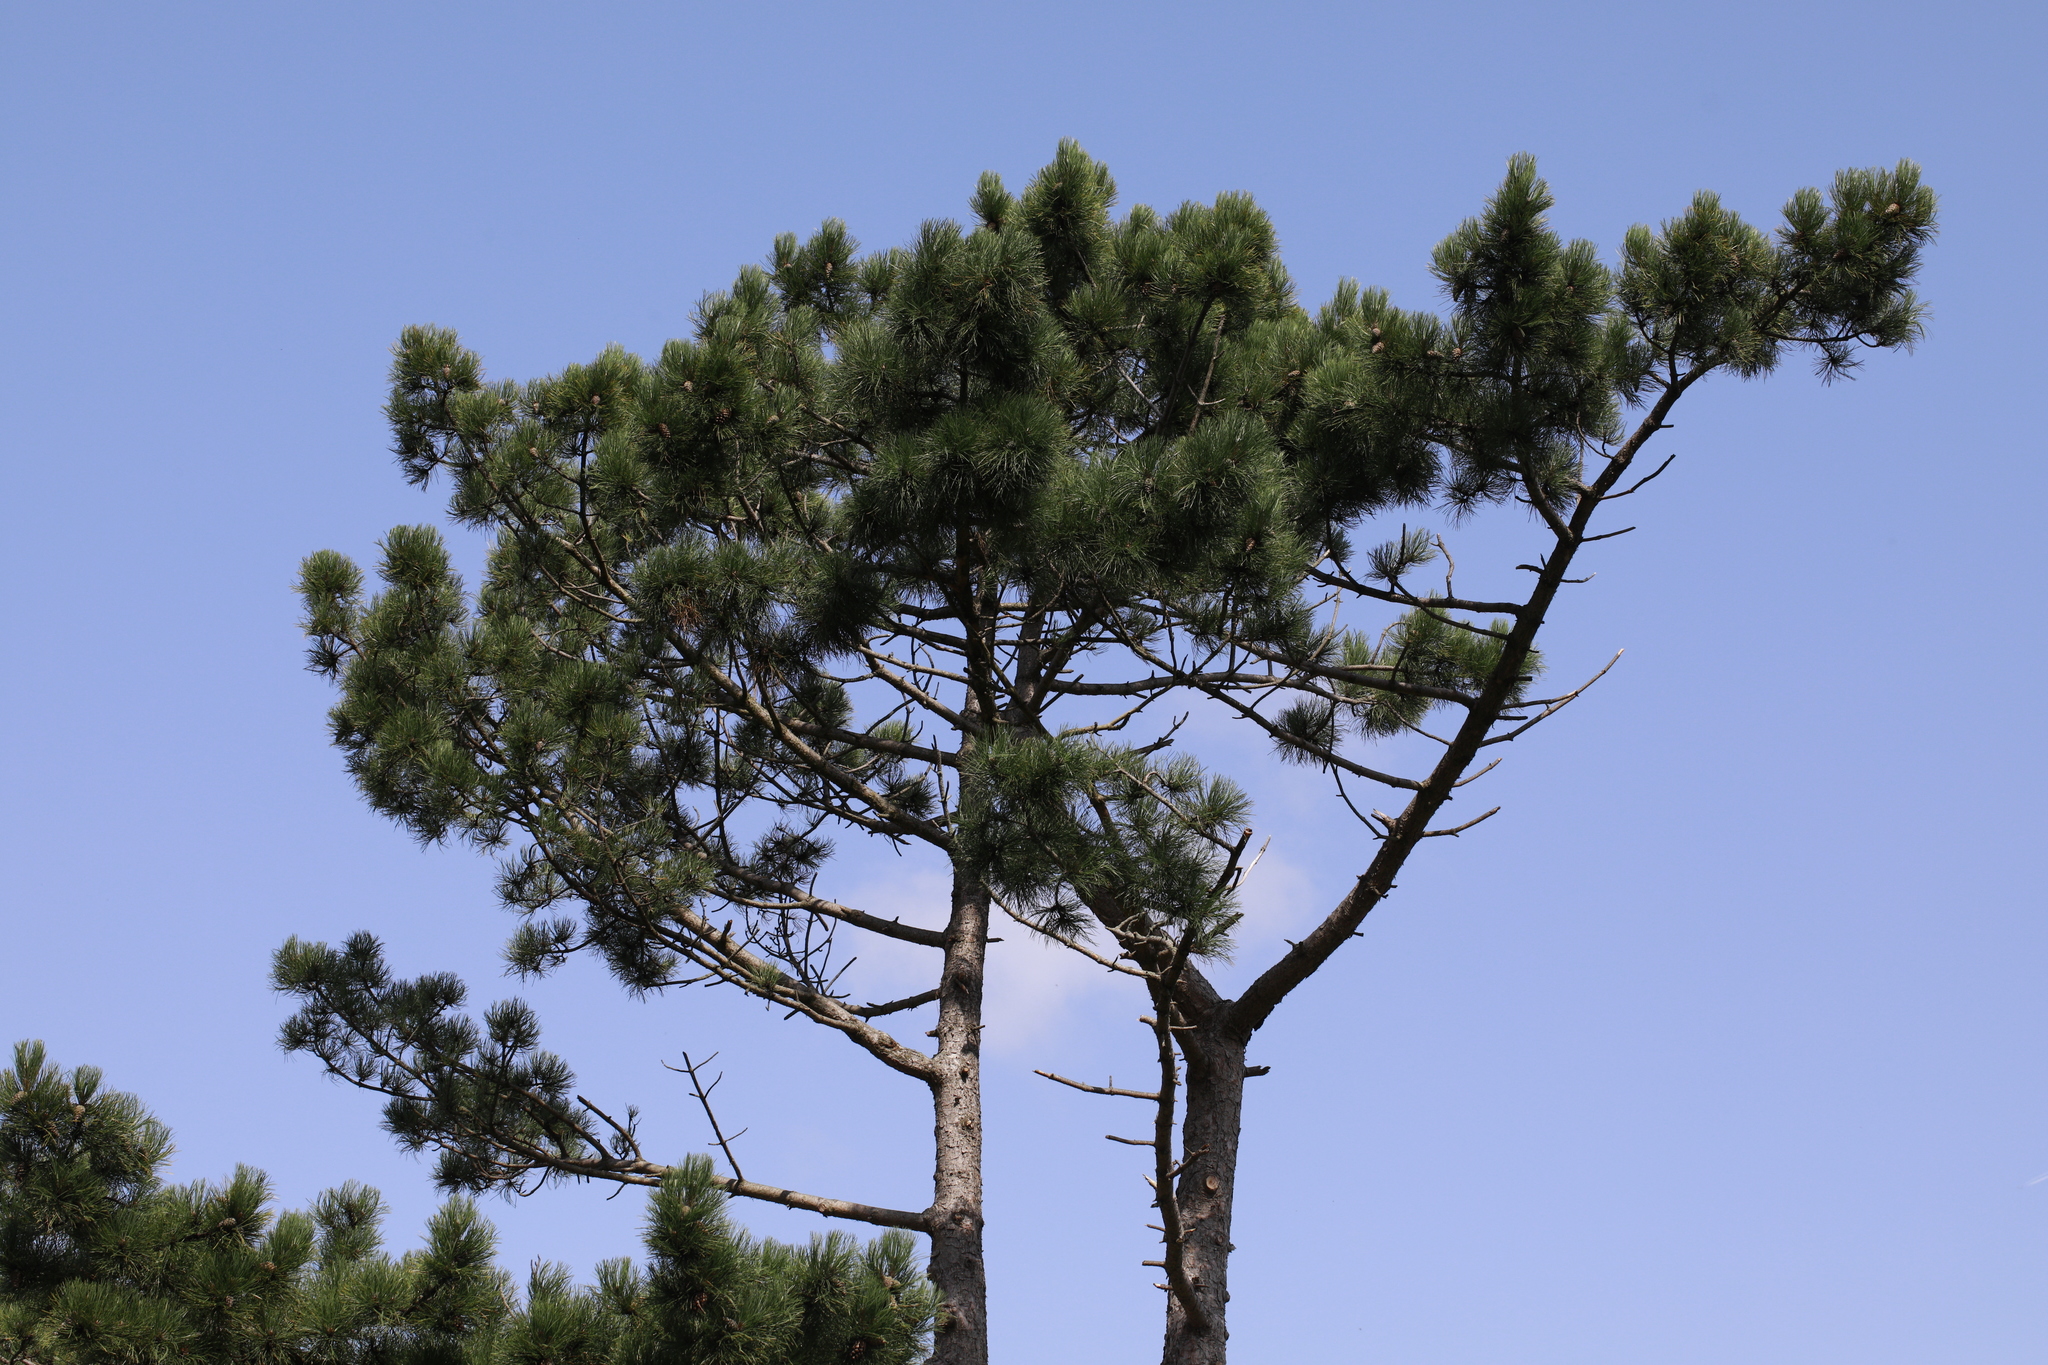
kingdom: Plantae
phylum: Tracheophyta
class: Pinopsida
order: Pinales
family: Pinaceae
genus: Pinus
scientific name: Pinus sylvestris
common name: Scots pine
